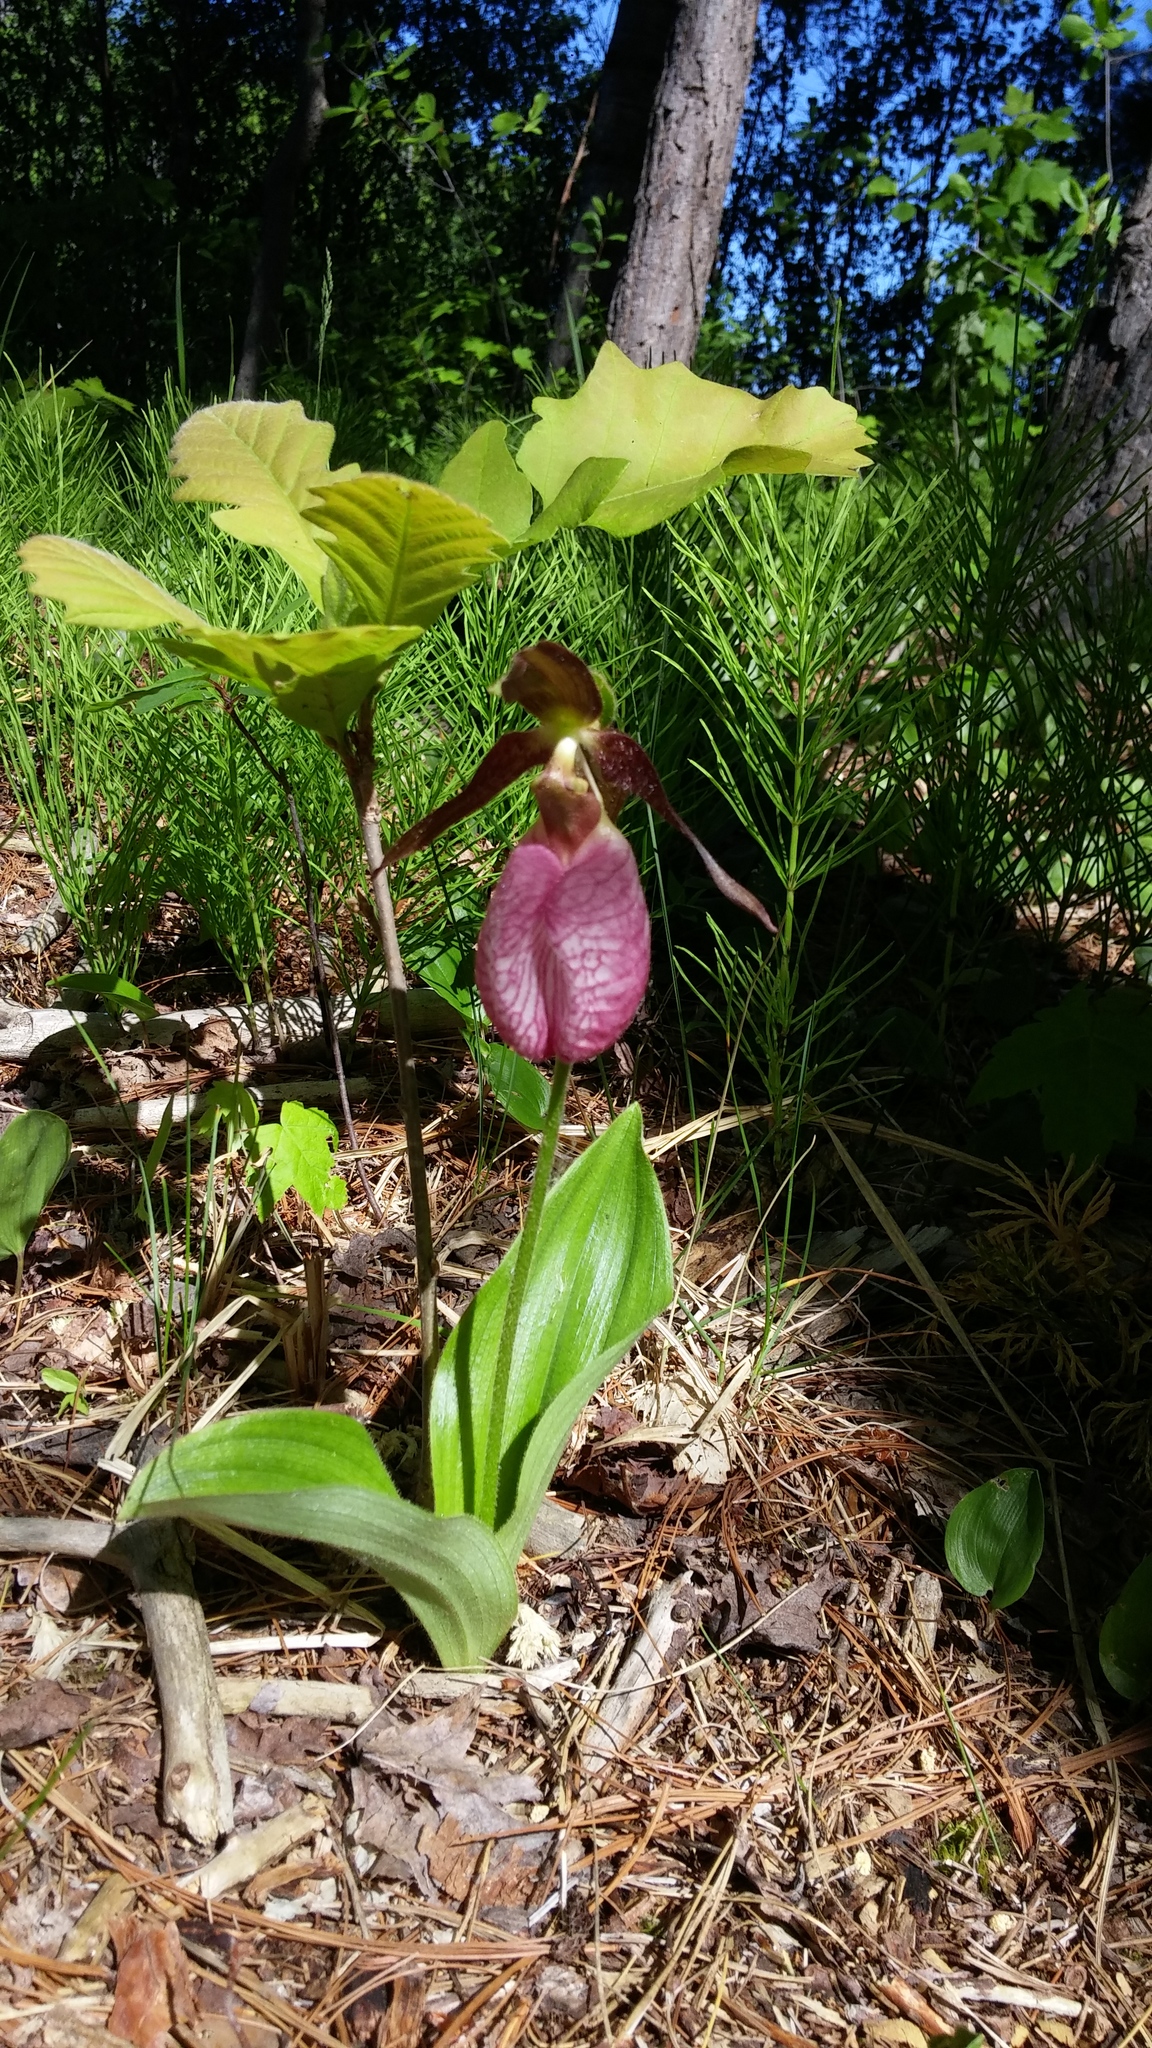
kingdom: Plantae
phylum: Tracheophyta
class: Liliopsida
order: Asparagales
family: Orchidaceae
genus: Cypripedium
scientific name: Cypripedium acaule
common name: Pink lady's-slipper
